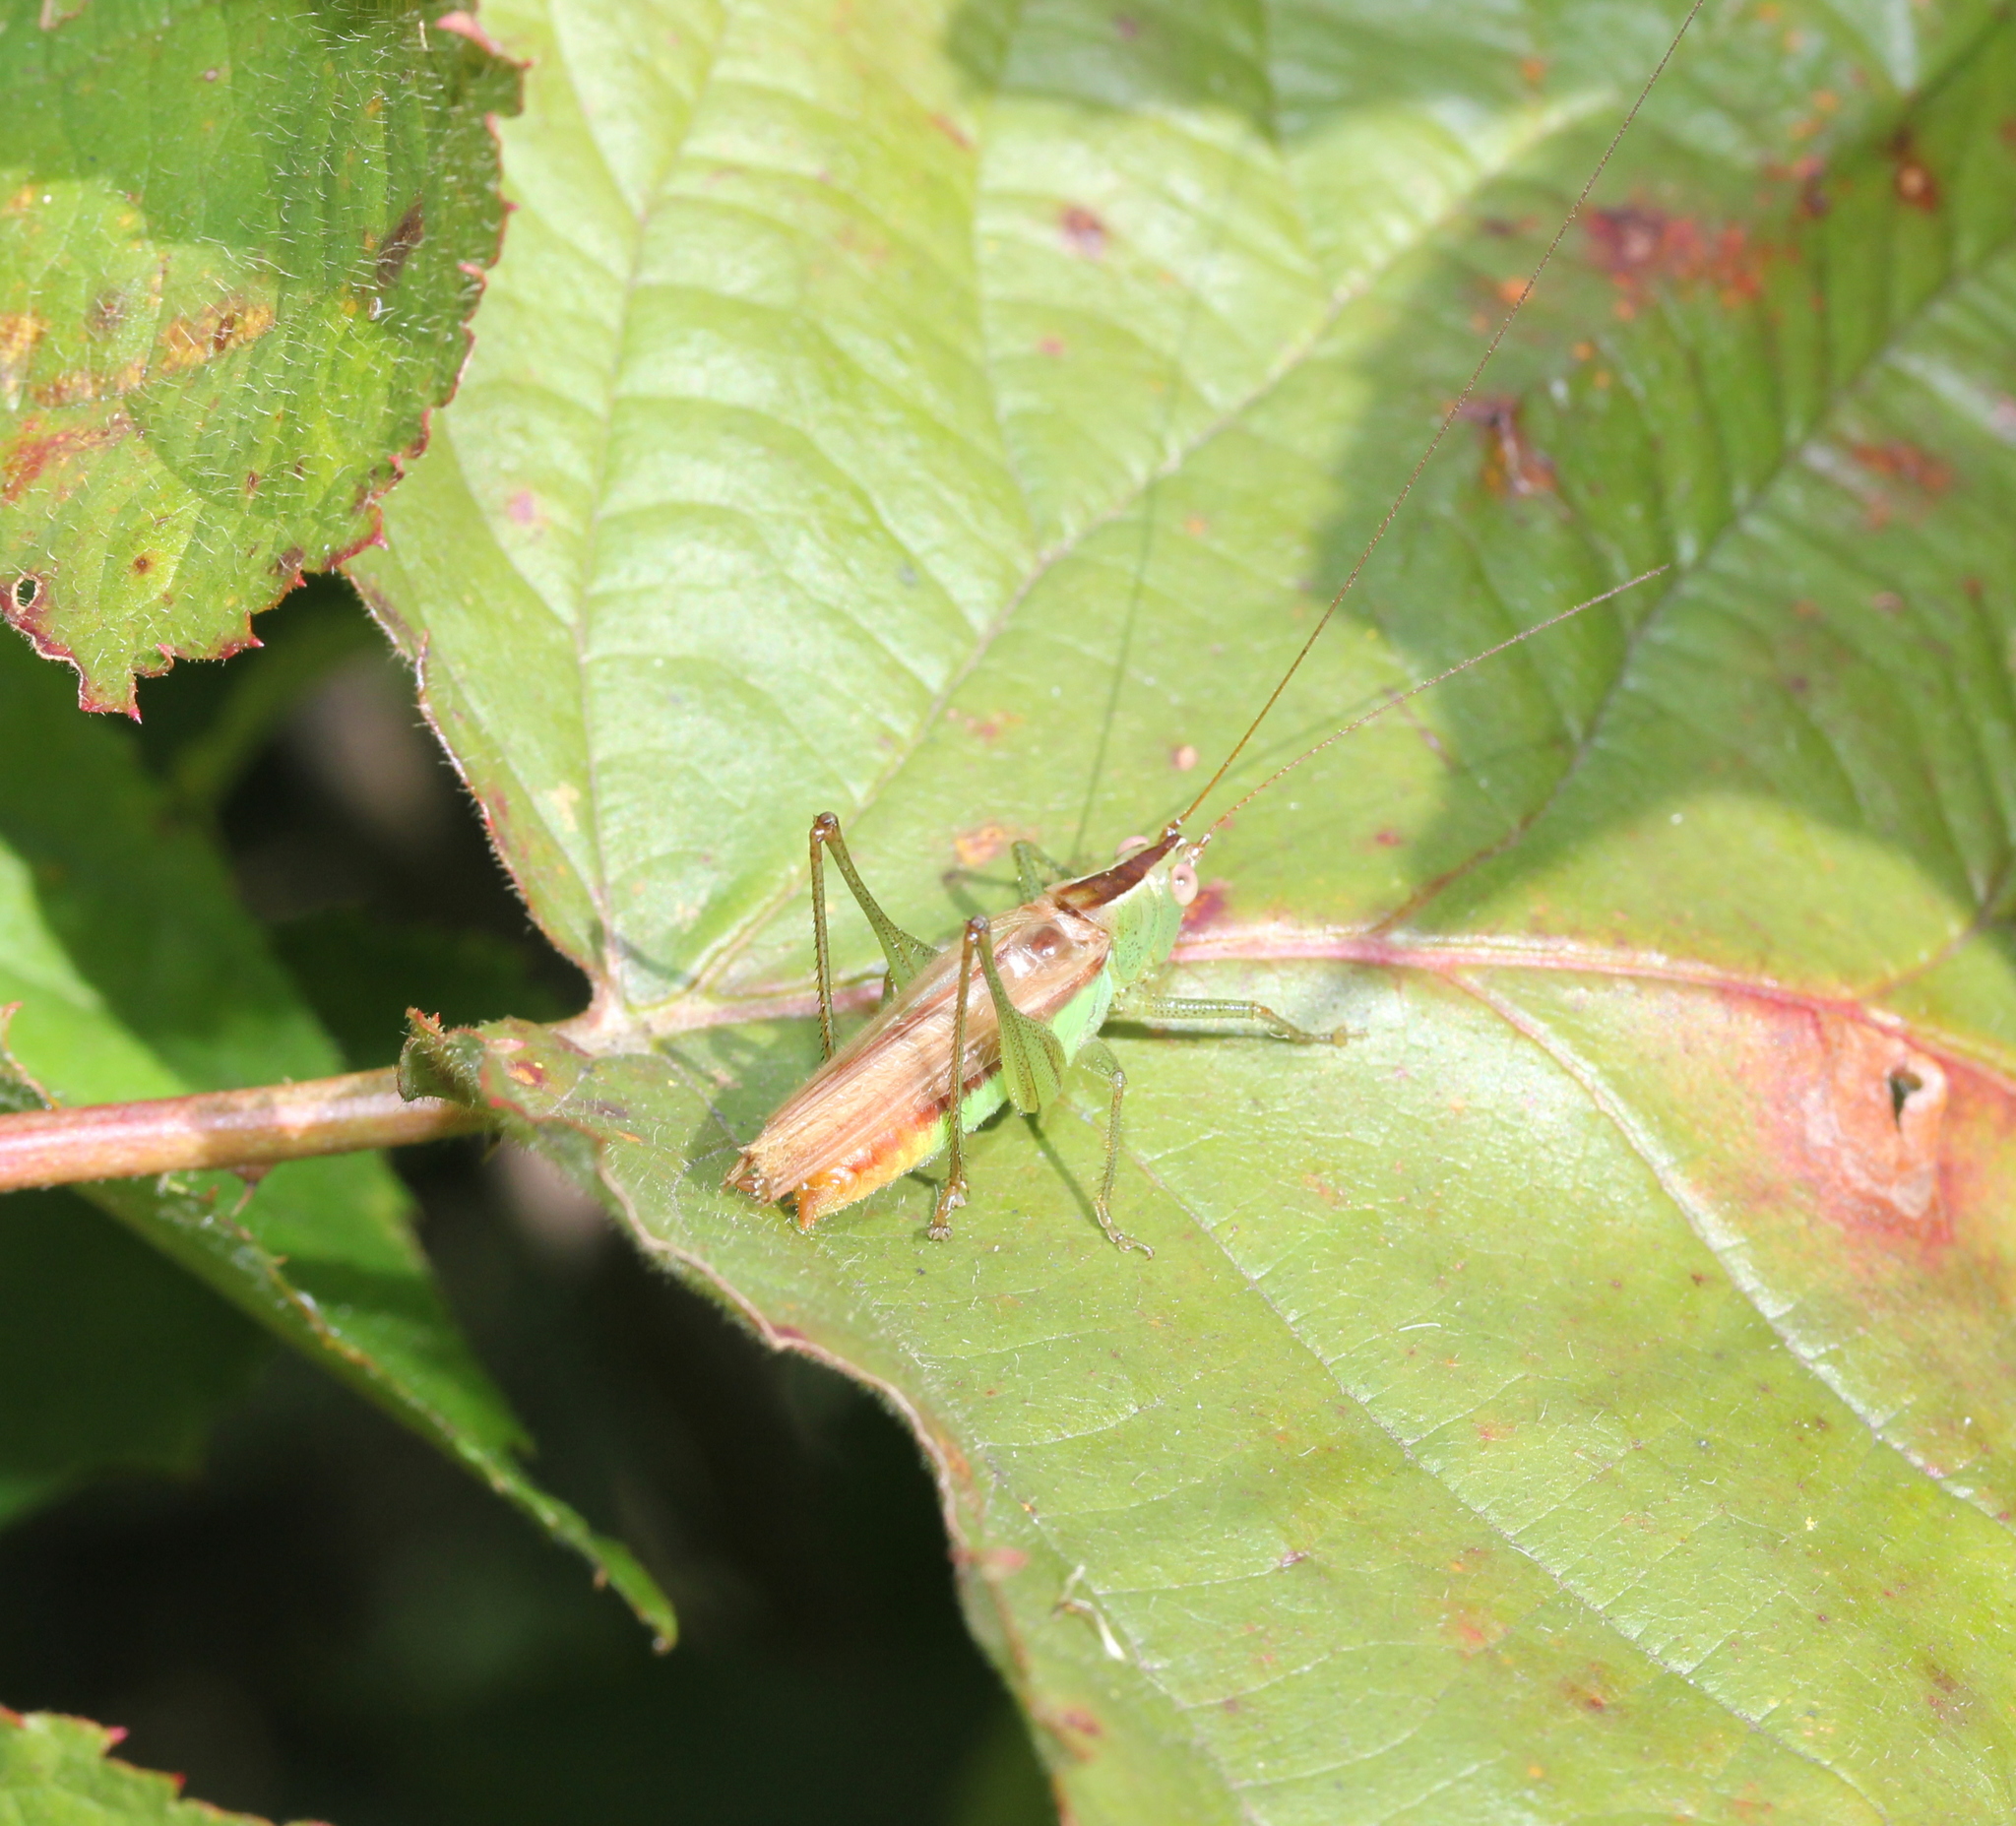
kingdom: Animalia
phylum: Arthropoda
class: Insecta
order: Orthoptera
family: Tettigoniidae
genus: Conocephalus
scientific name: Conocephalus brevipennis
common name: Short-winged meadow katydid
